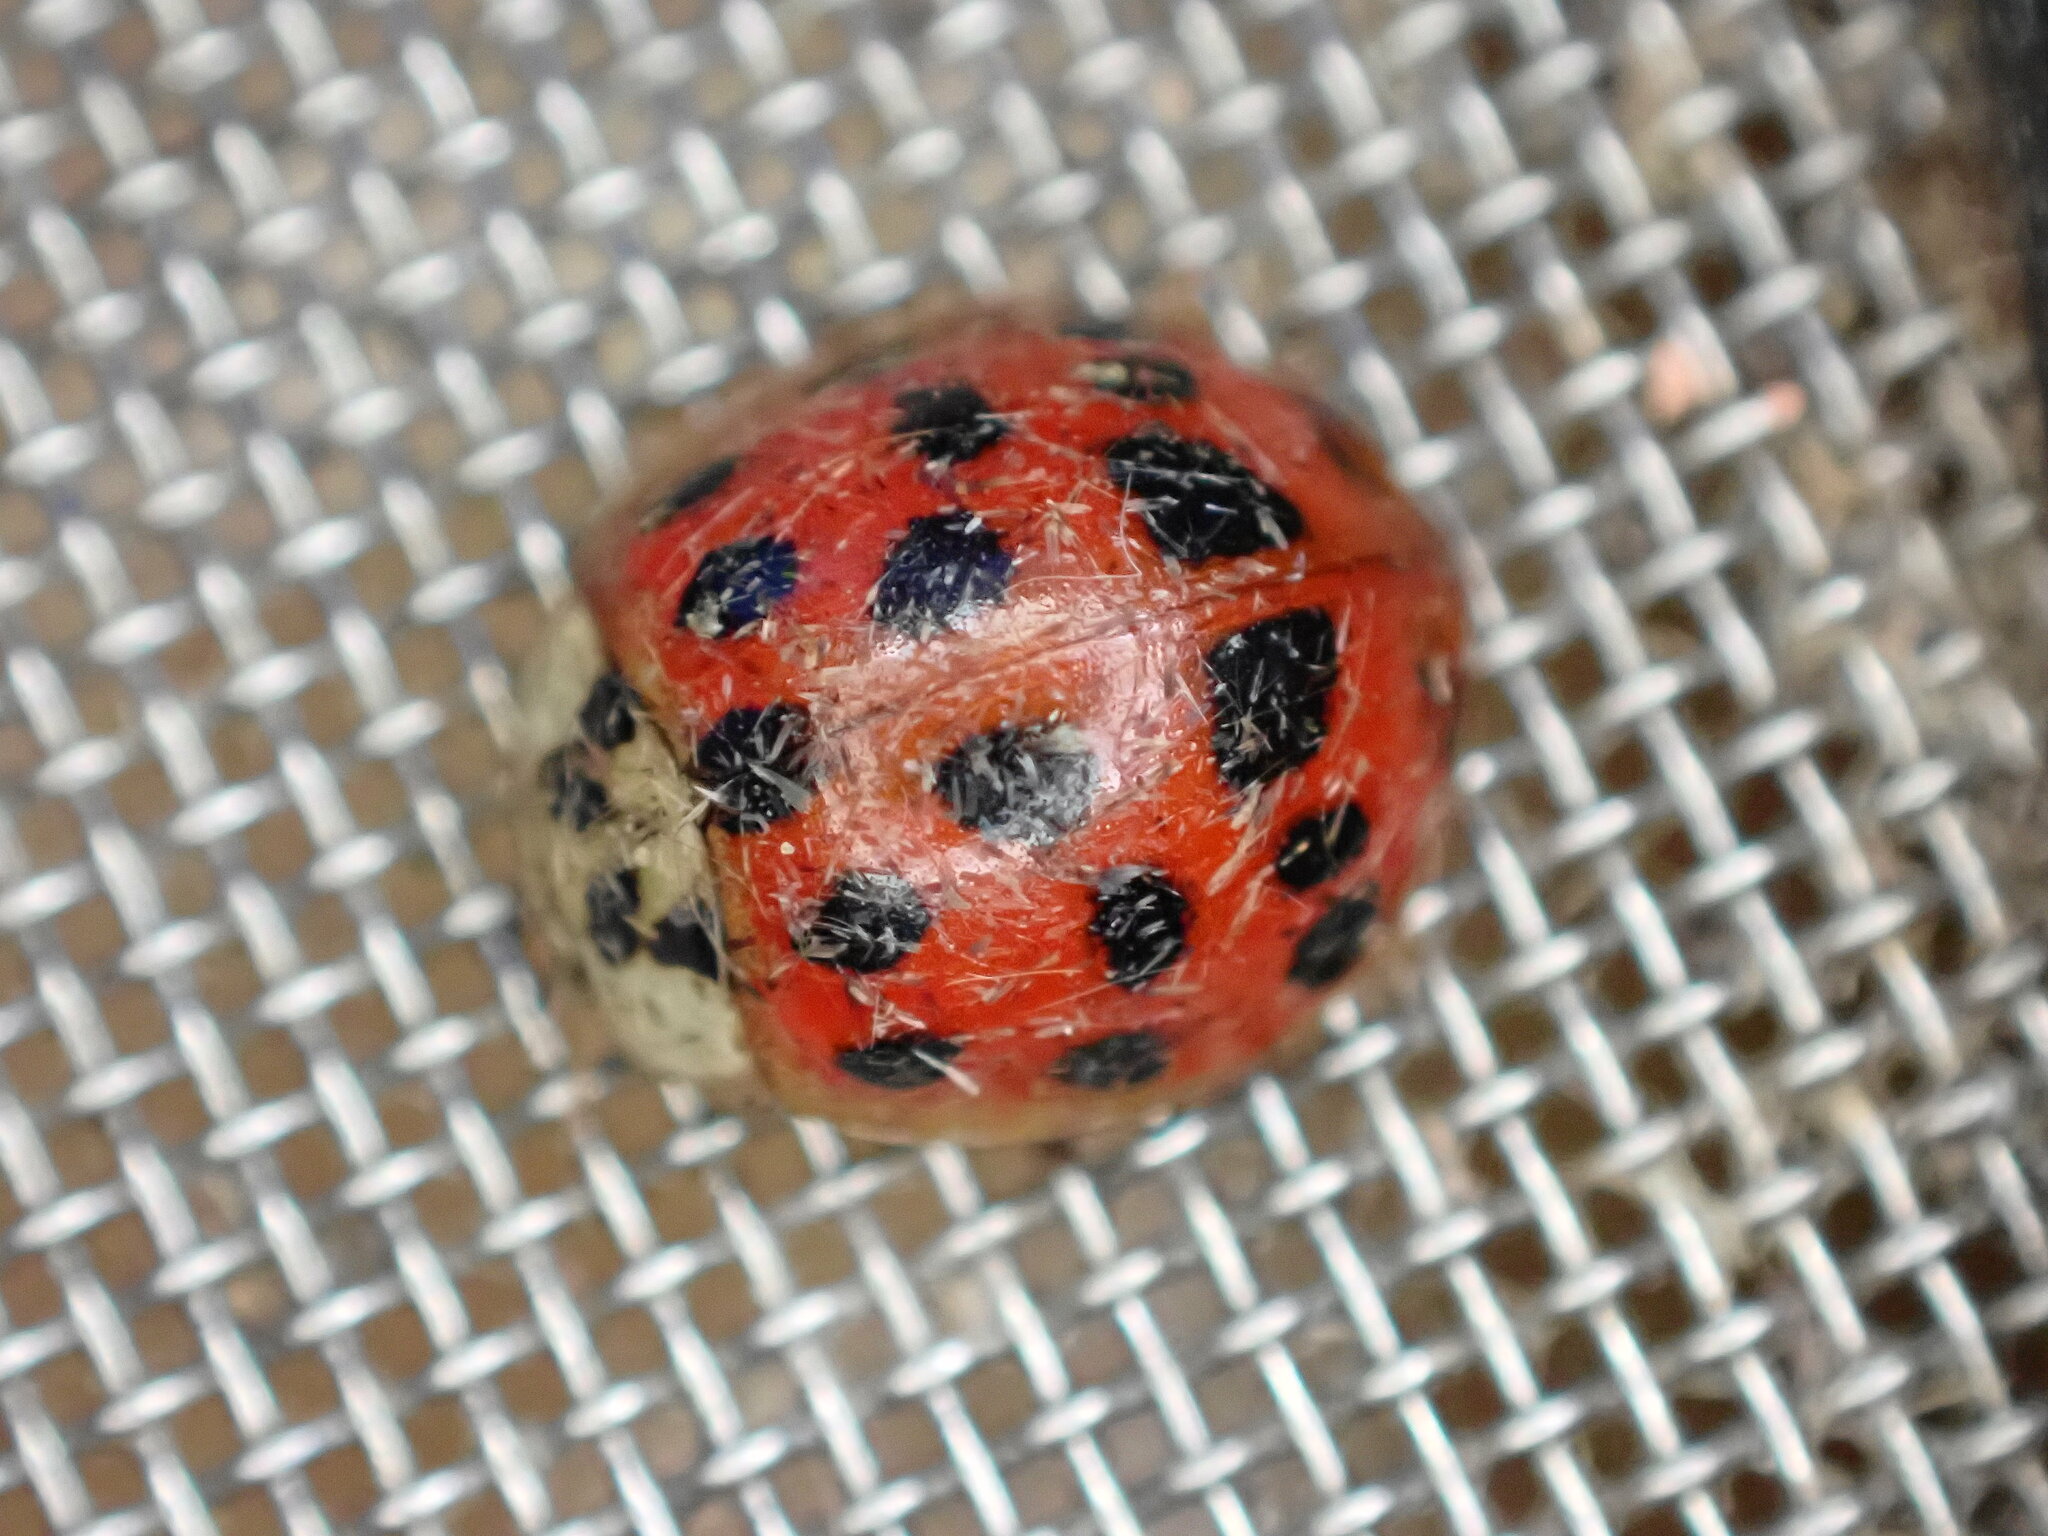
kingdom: Animalia
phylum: Arthropoda
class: Insecta
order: Coleoptera
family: Coccinellidae
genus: Harmonia
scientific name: Harmonia axyridis
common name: Harlequin ladybird
